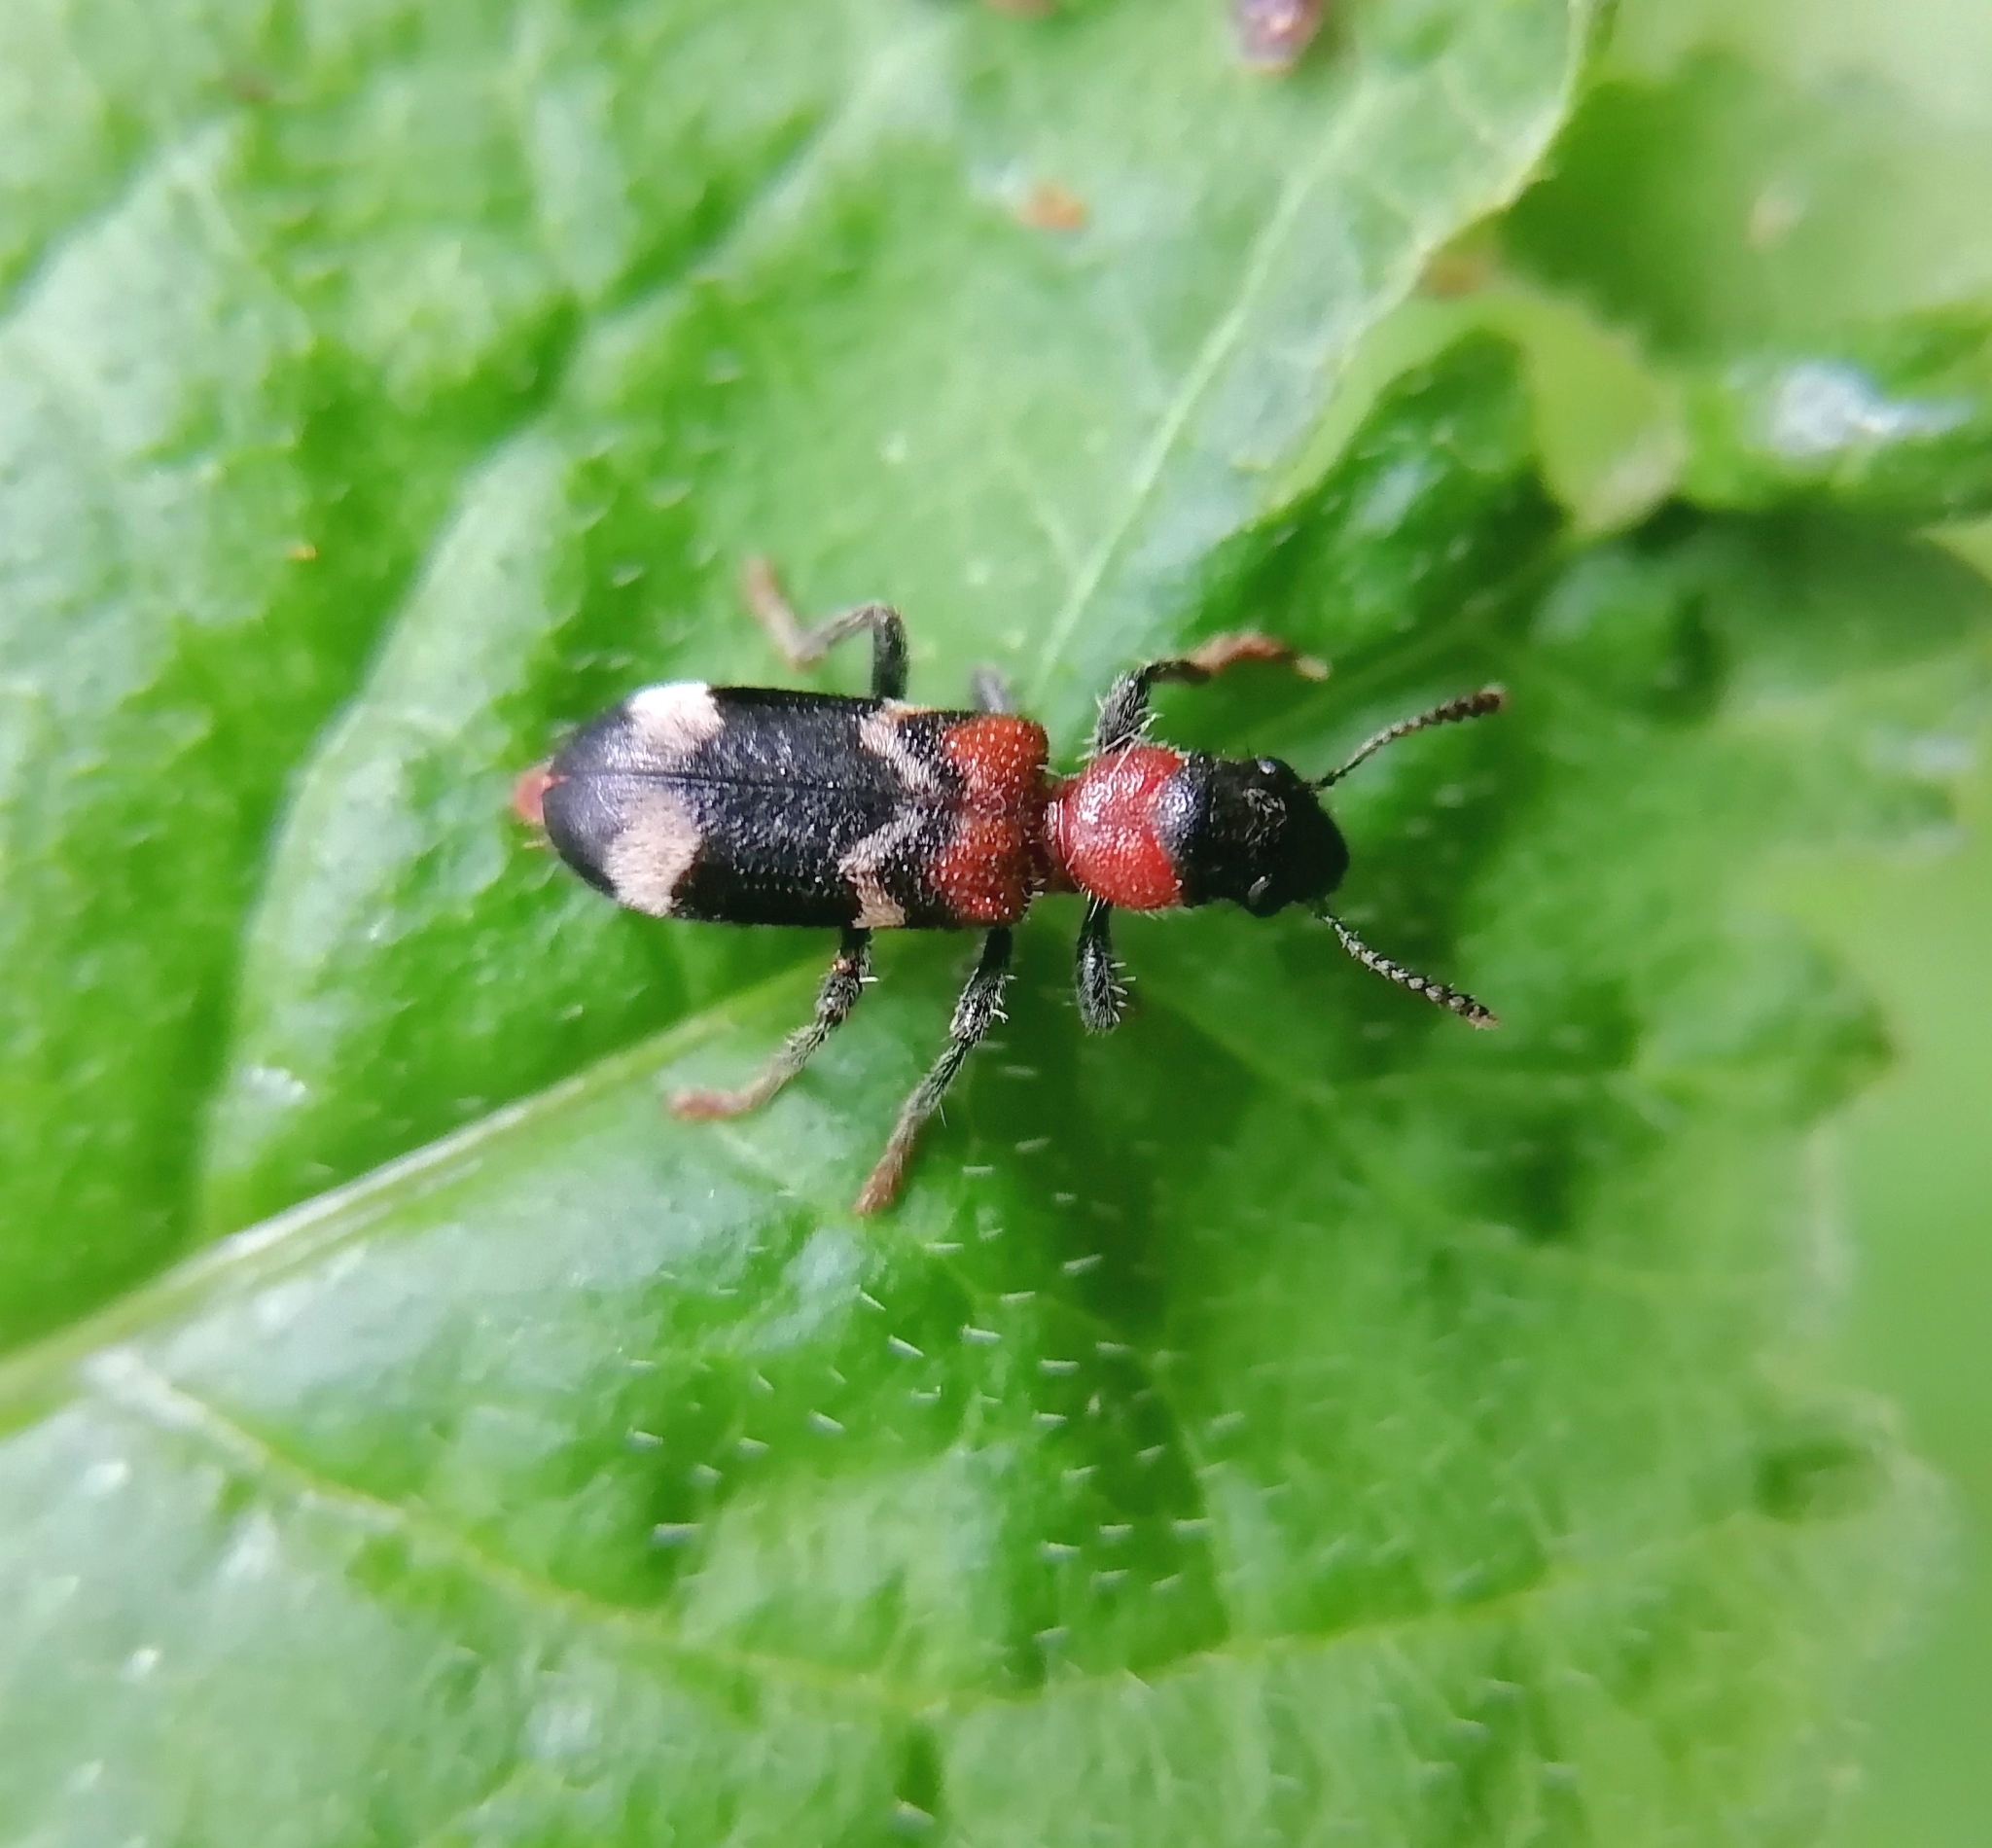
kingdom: Animalia
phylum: Arthropoda
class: Insecta
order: Coleoptera
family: Cleridae
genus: Thanasimus
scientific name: Thanasimus formicarius
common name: Ant beetle
